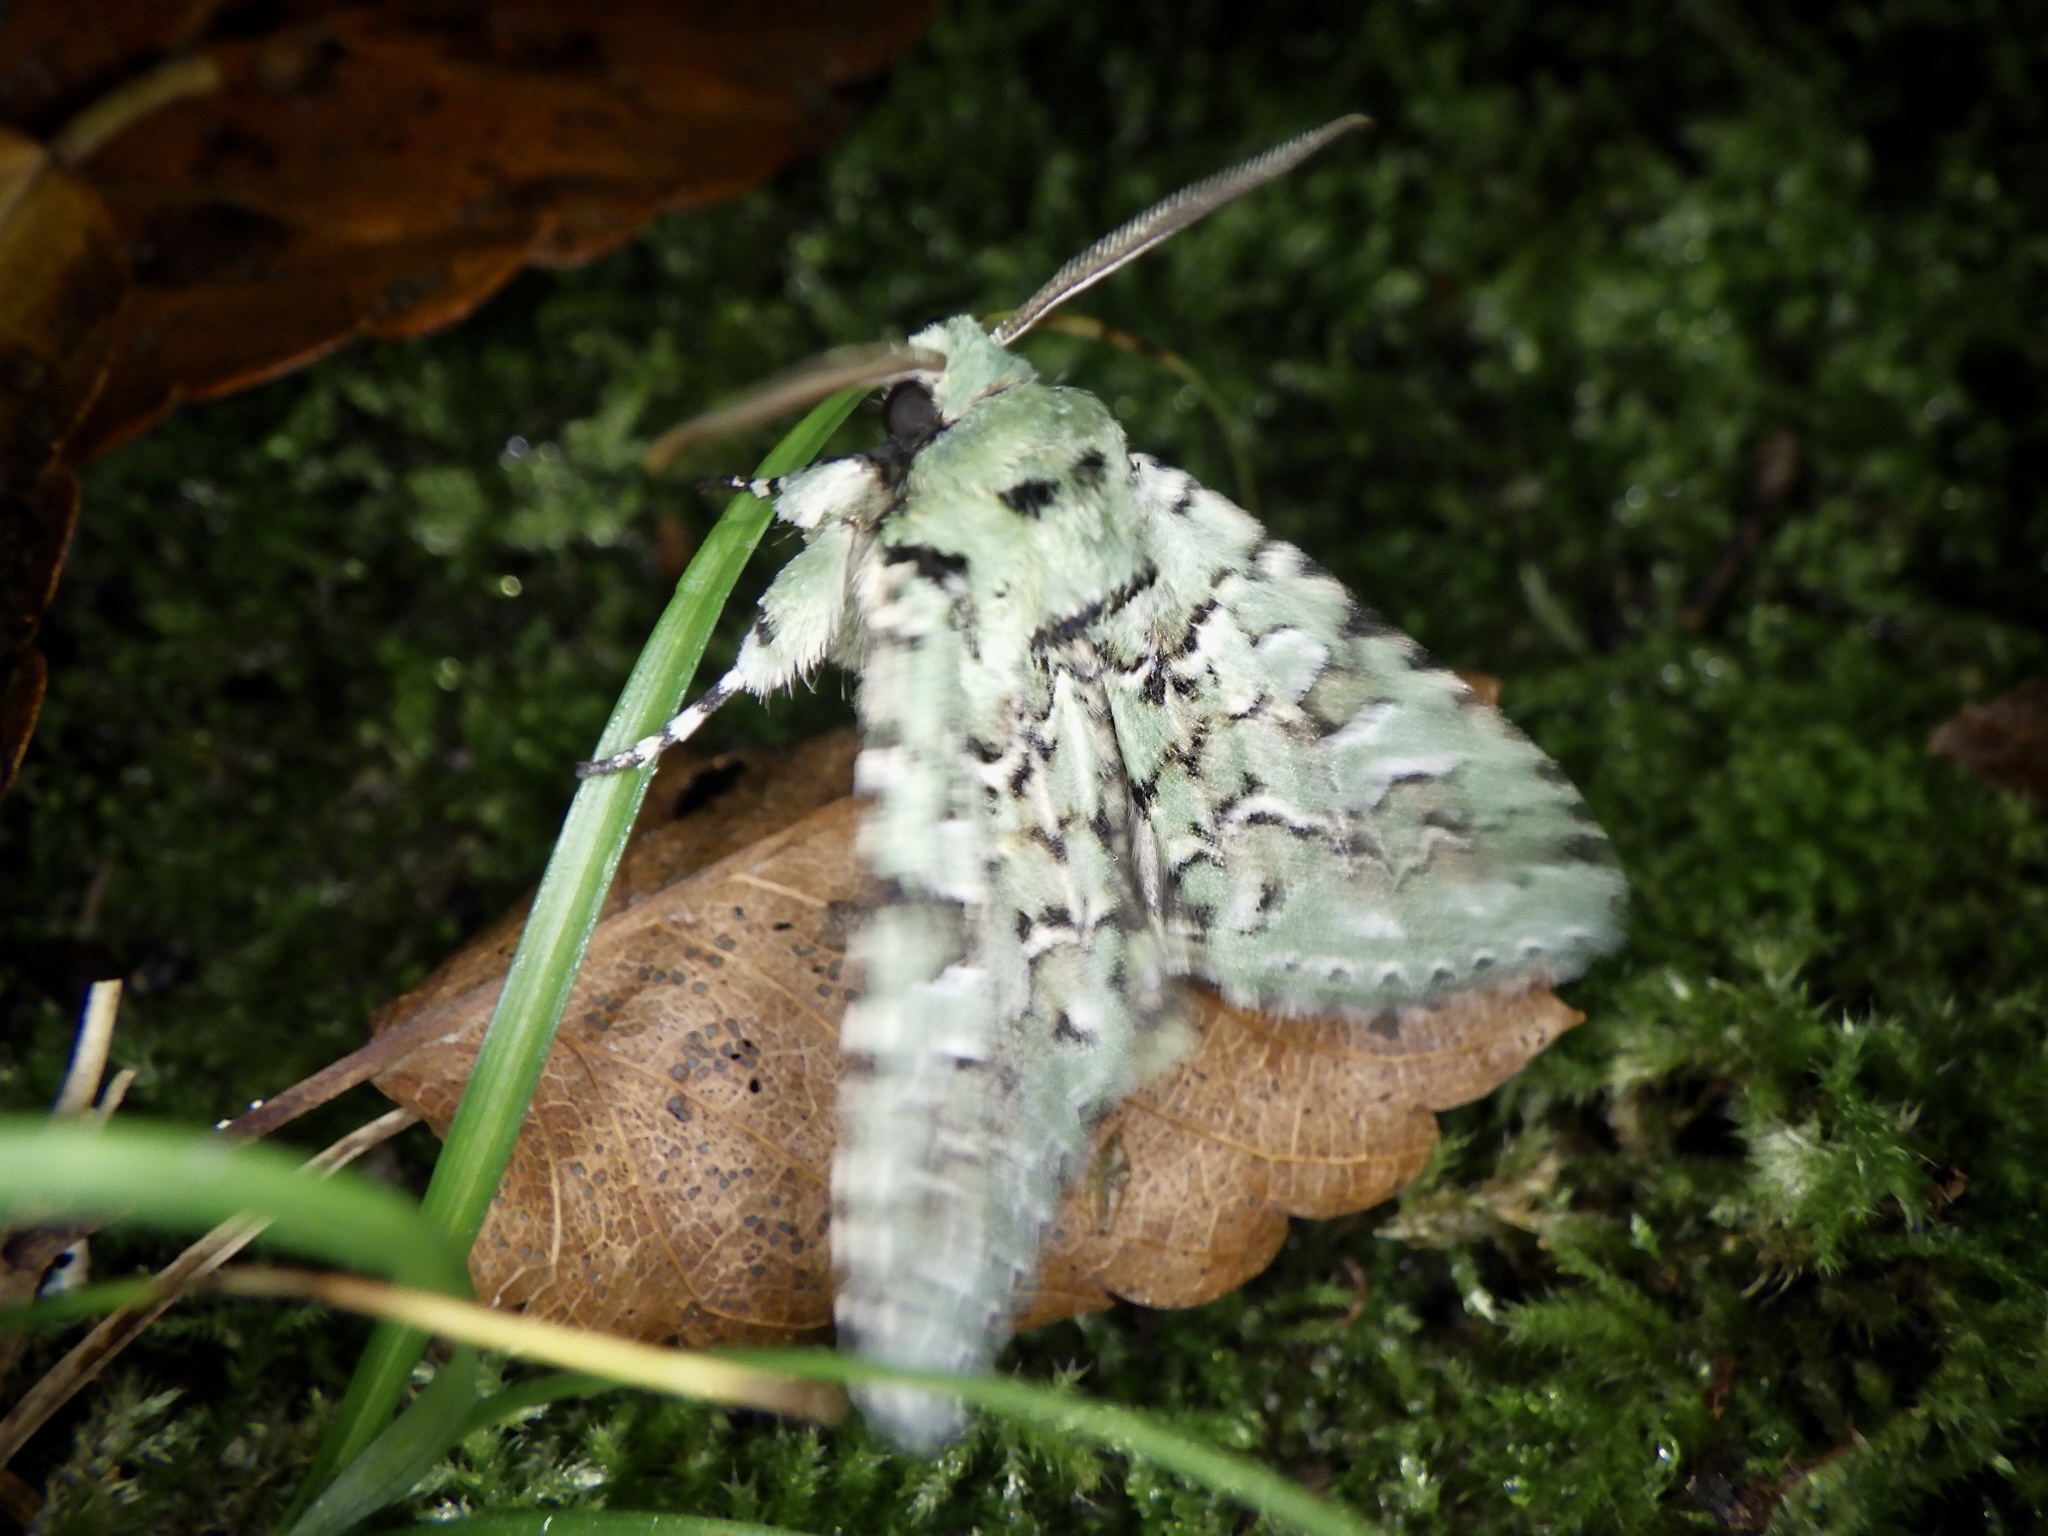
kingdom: Animalia
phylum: Arthropoda
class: Insecta
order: Lepidoptera
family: Noctuidae
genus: Daseochaeta
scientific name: Daseochaeta viridis
